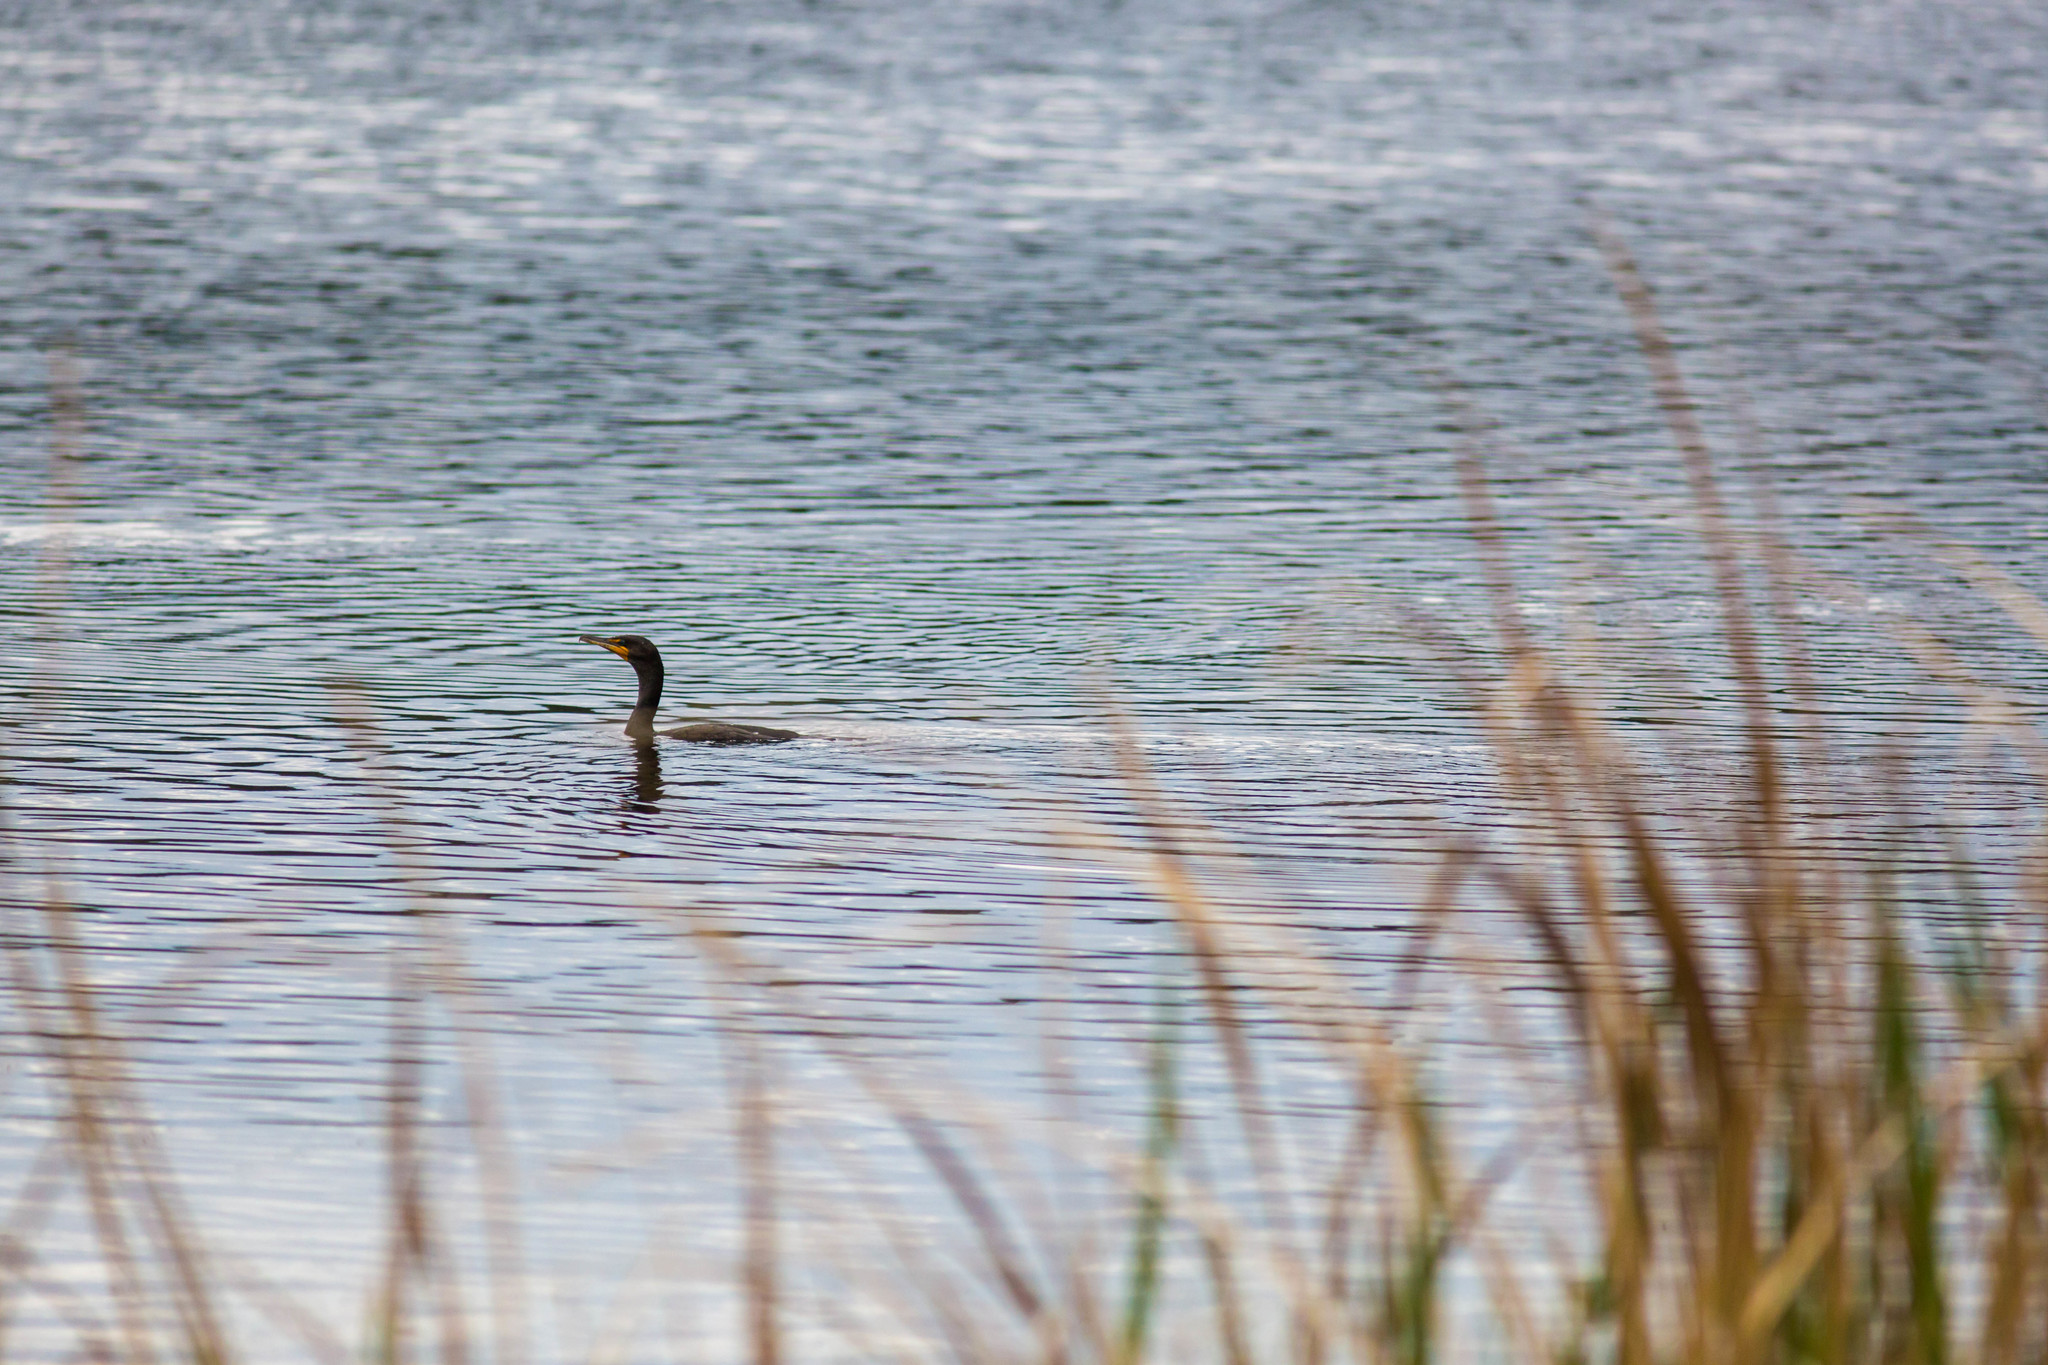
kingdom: Animalia
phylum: Chordata
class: Aves
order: Suliformes
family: Phalacrocoracidae
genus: Phalacrocorax
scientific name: Phalacrocorax auritus
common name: Double-crested cormorant
